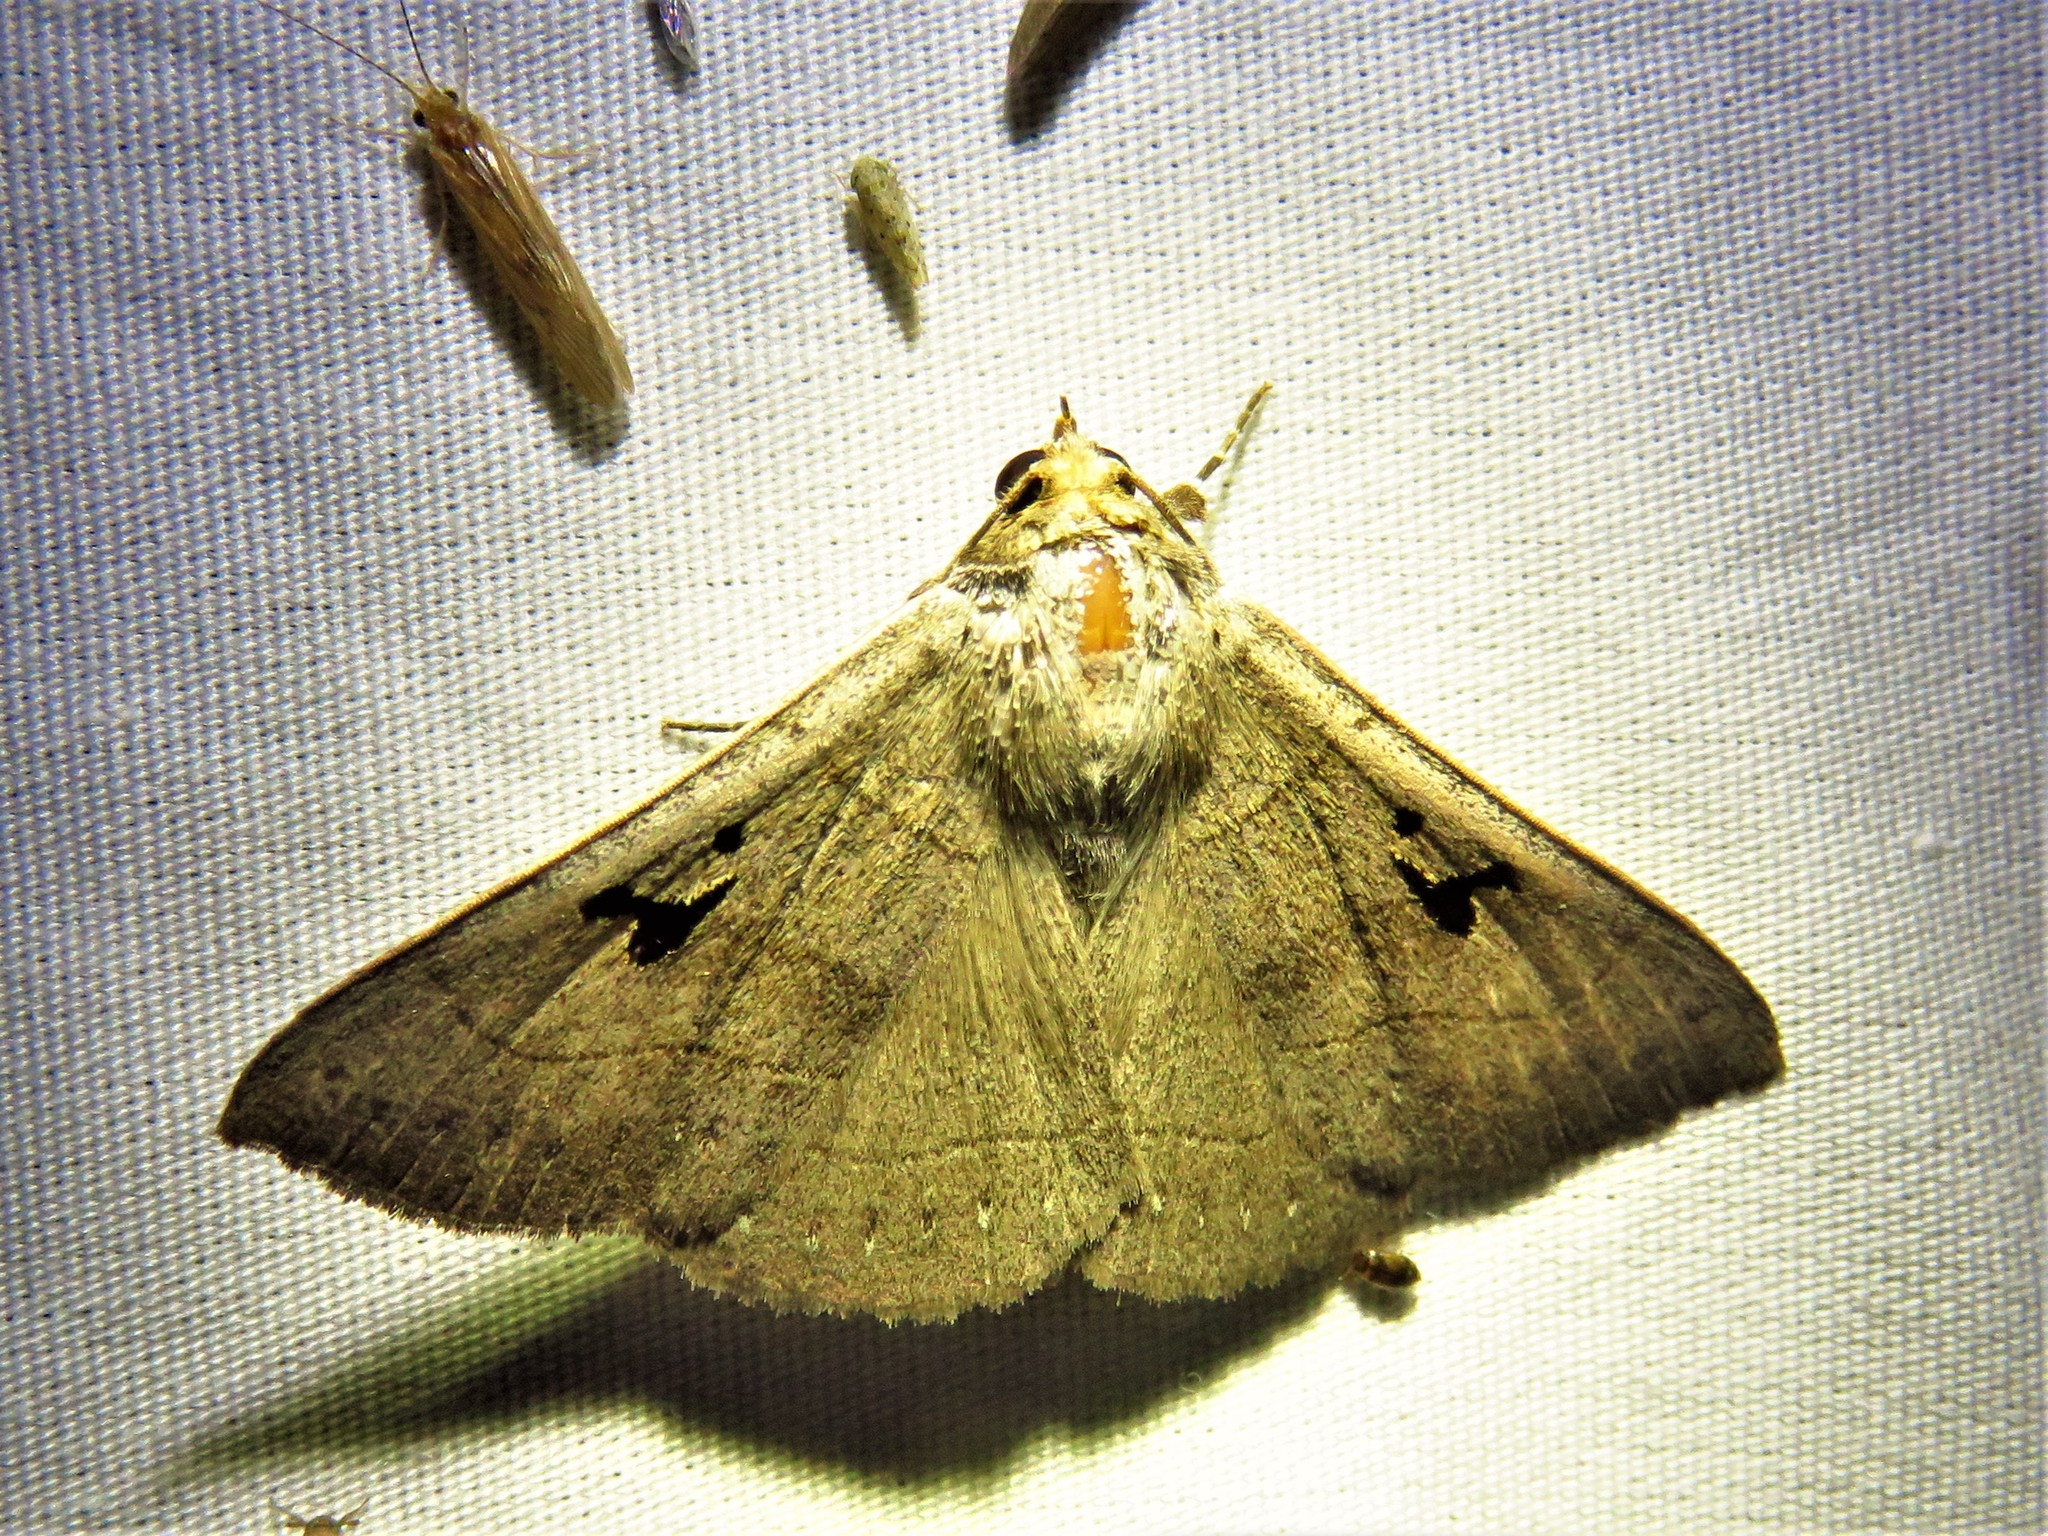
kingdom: Animalia
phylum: Arthropoda
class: Insecta
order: Lepidoptera
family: Erebidae
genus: Panopoda
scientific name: Panopoda carneicosta
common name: Brown panopoda moth
